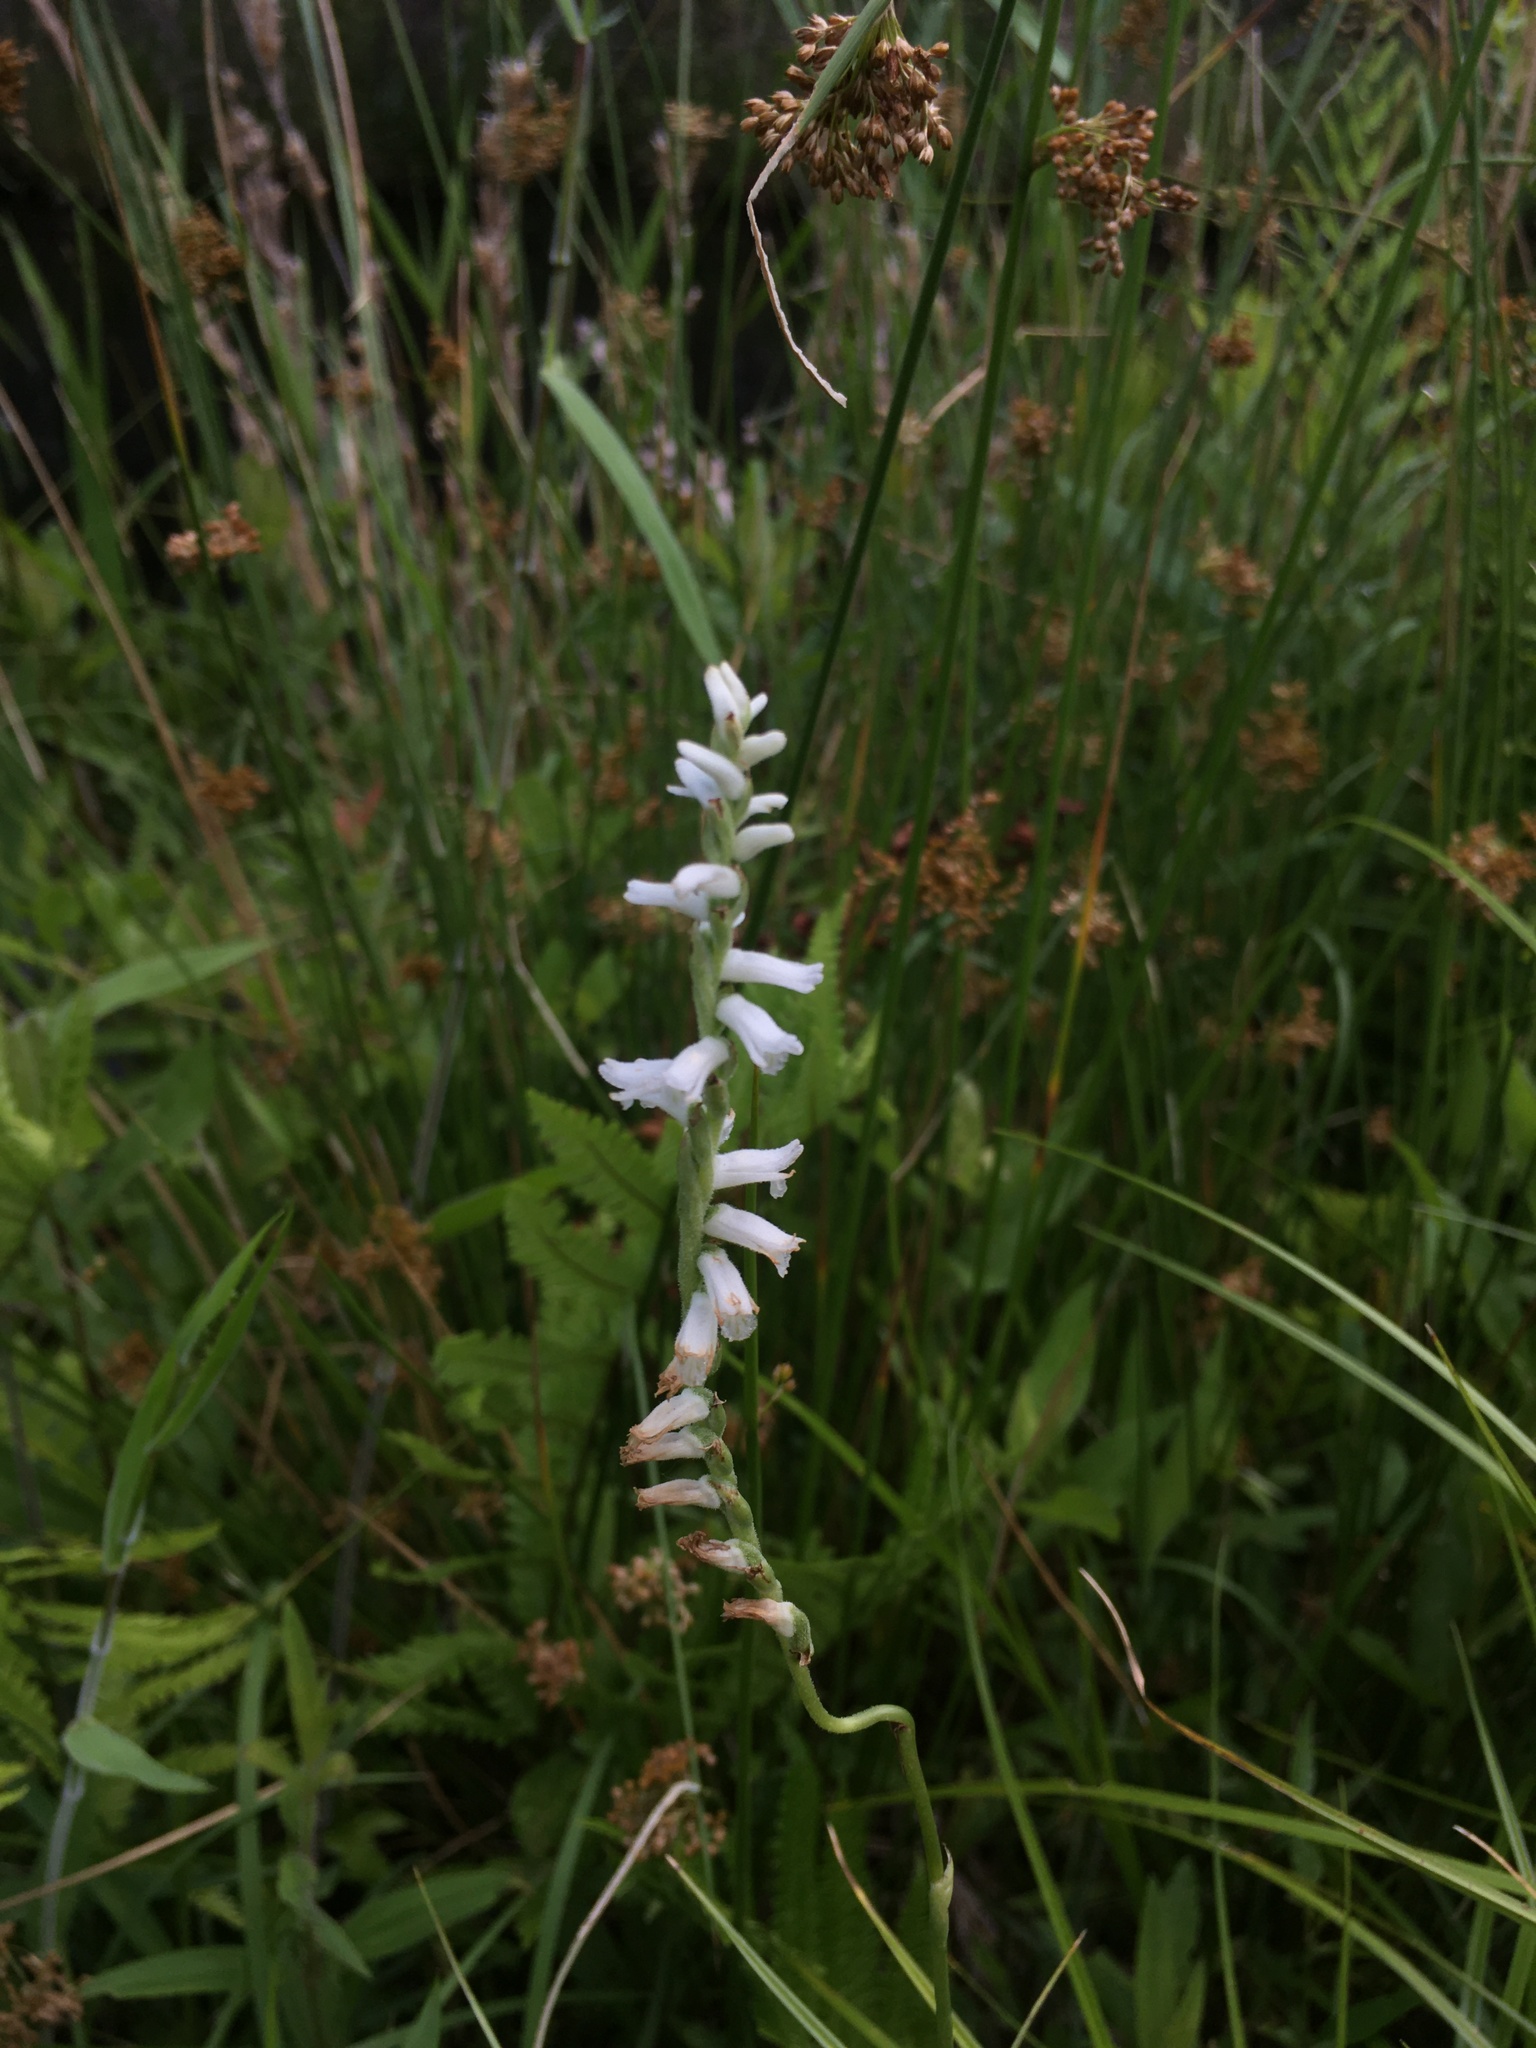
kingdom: Plantae
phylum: Tracheophyta
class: Liliopsida
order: Asparagales
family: Orchidaceae
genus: Spiranthes
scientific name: Spiranthes praecox
